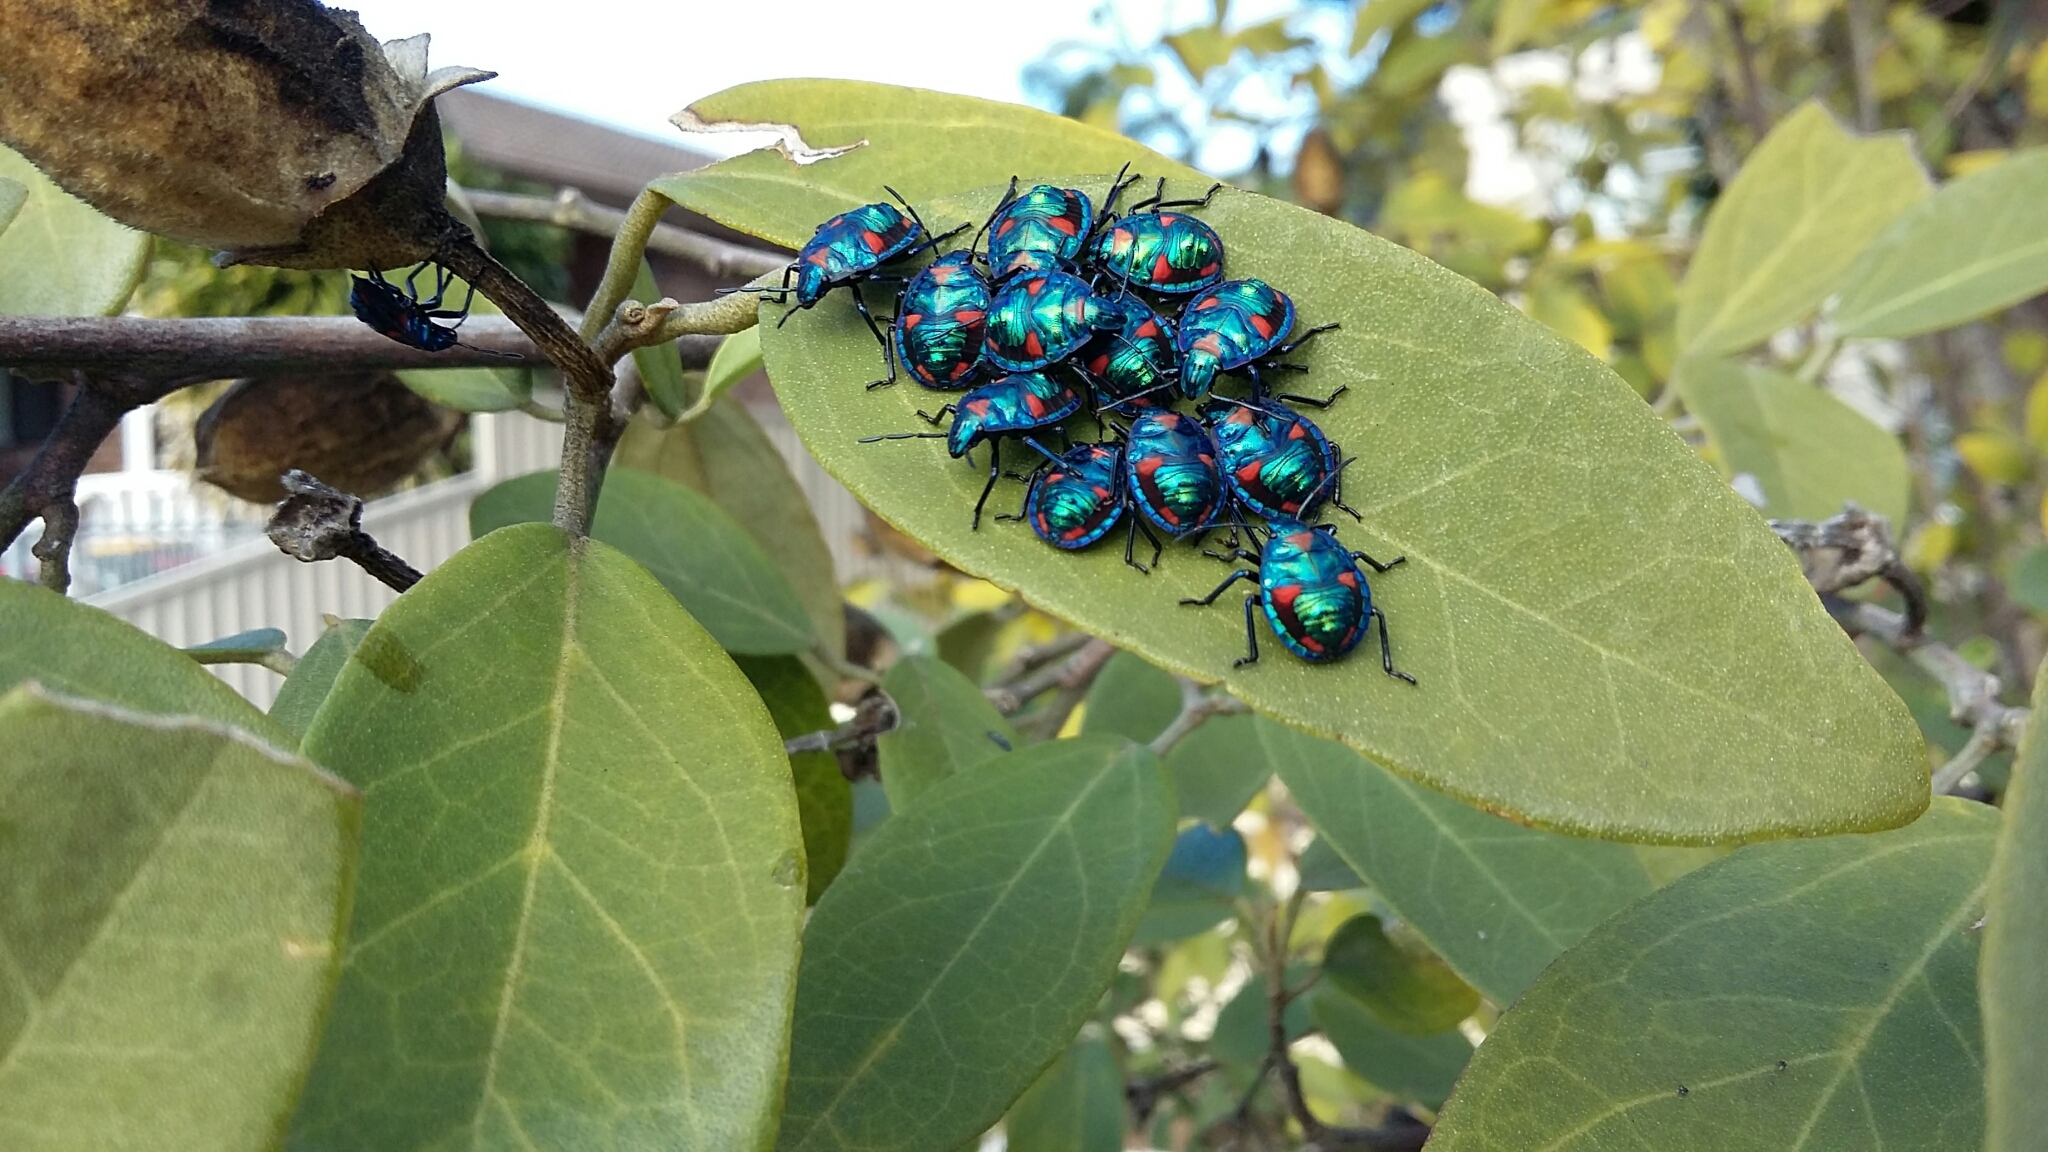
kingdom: Animalia
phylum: Arthropoda
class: Insecta
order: Hemiptera
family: Scutelleridae
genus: Tectocoris
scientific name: Tectocoris diophthalmus
